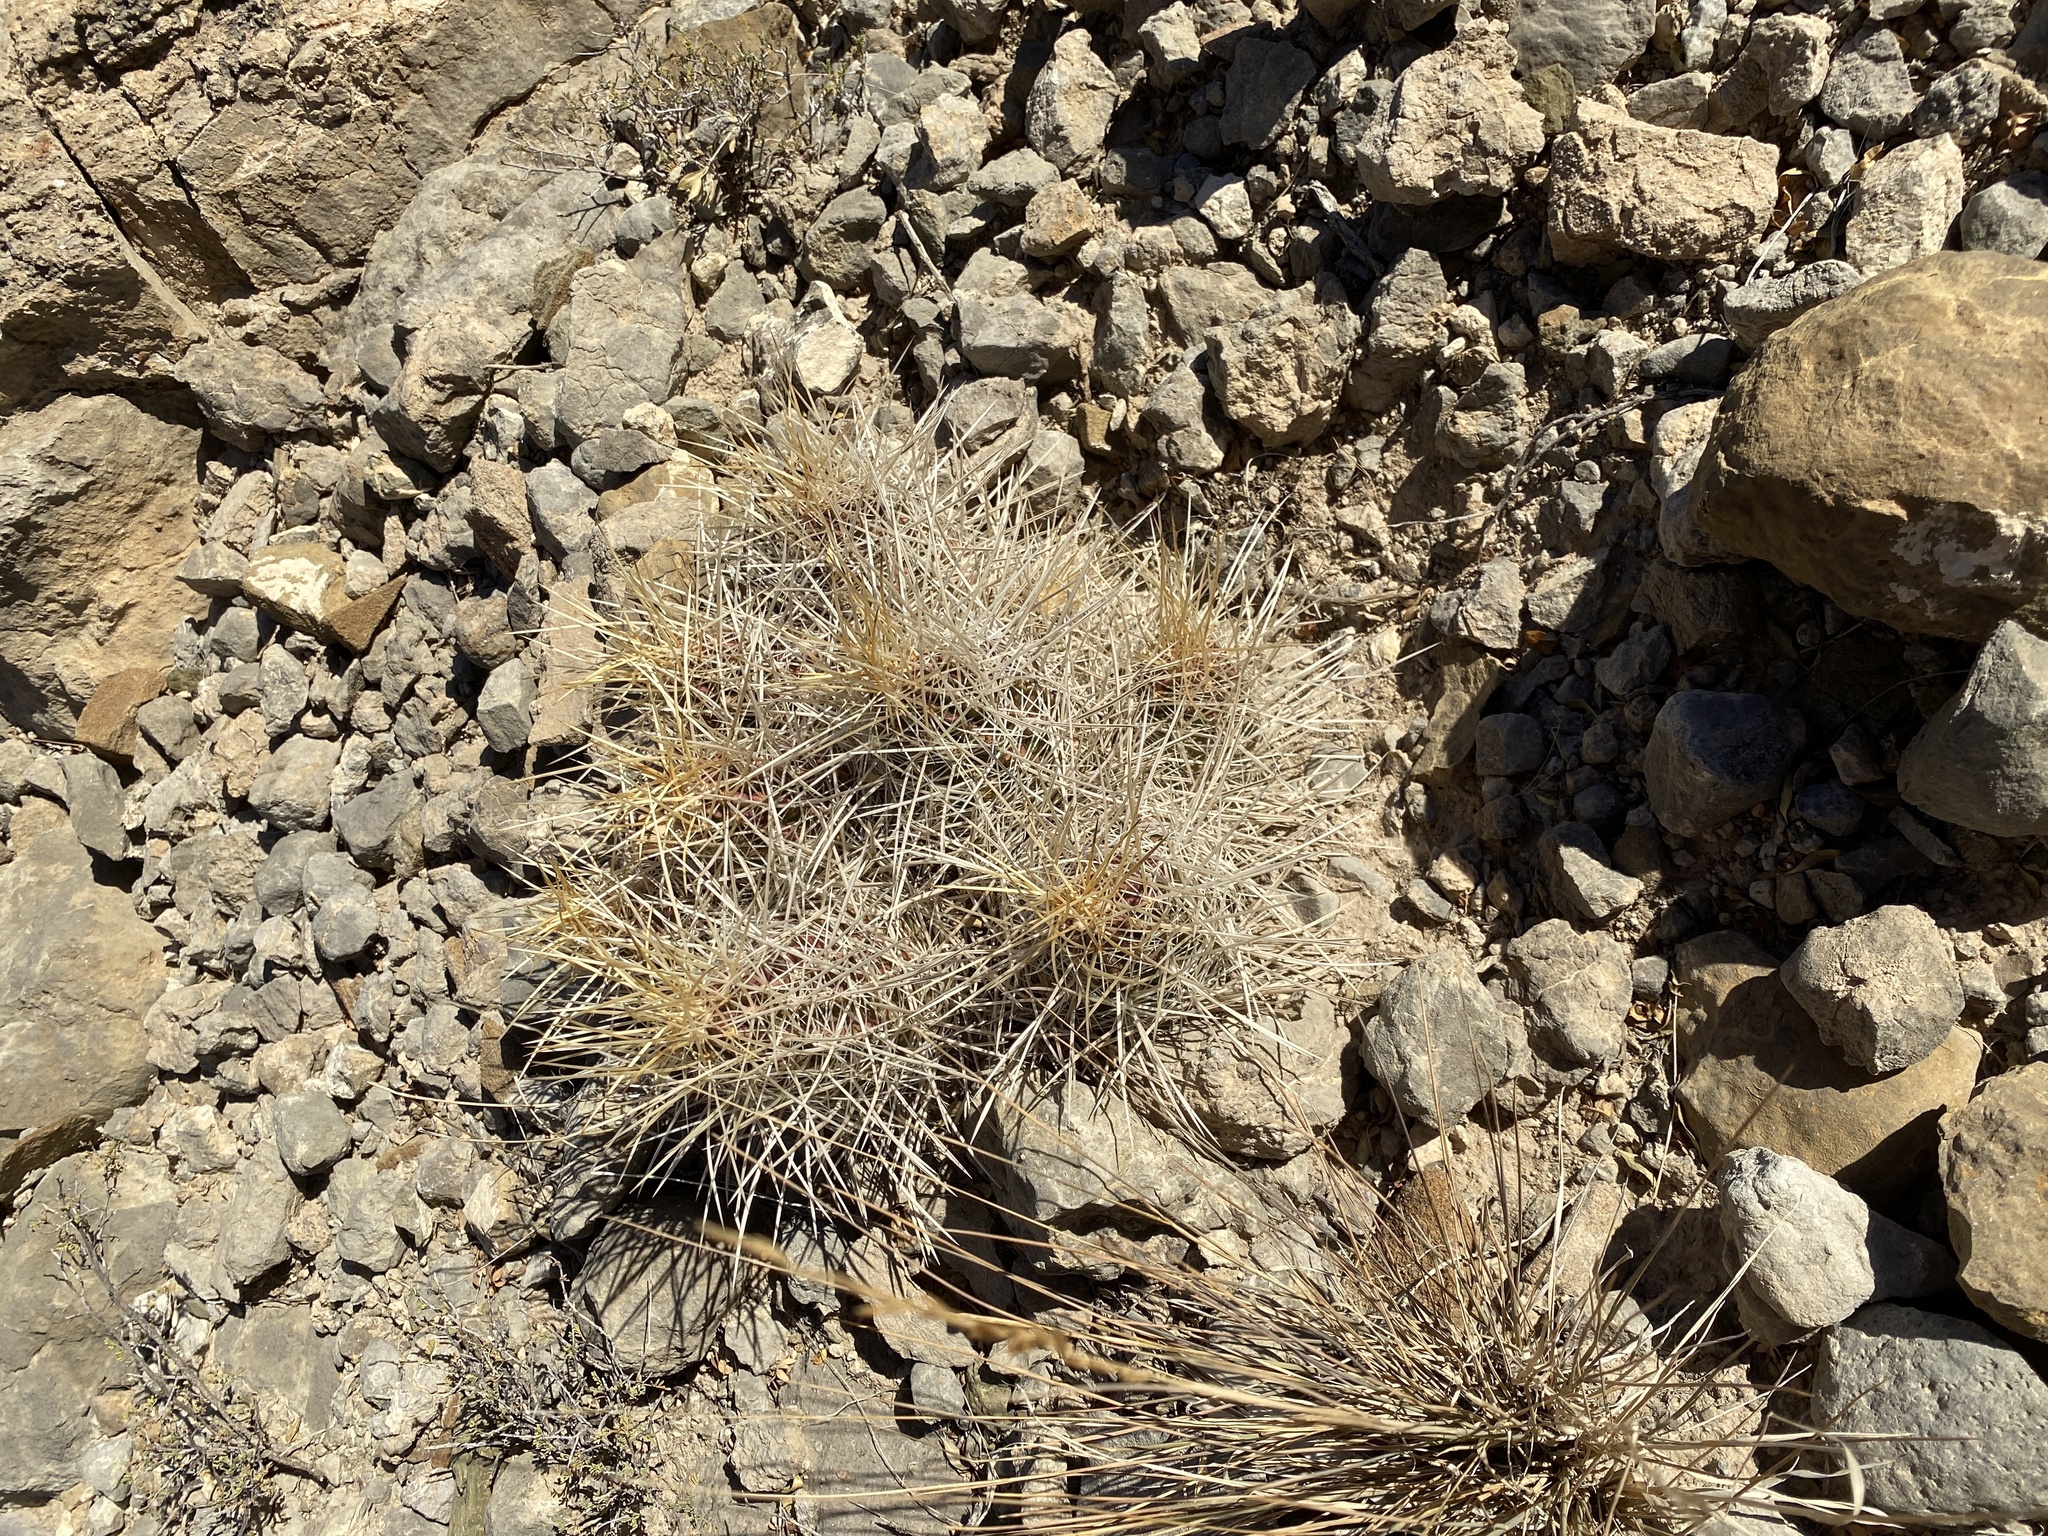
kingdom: Plantae
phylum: Tracheophyta
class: Magnoliopsida
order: Caryophyllales
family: Cactaceae
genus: Echinocereus
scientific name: Echinocereus stramineus
